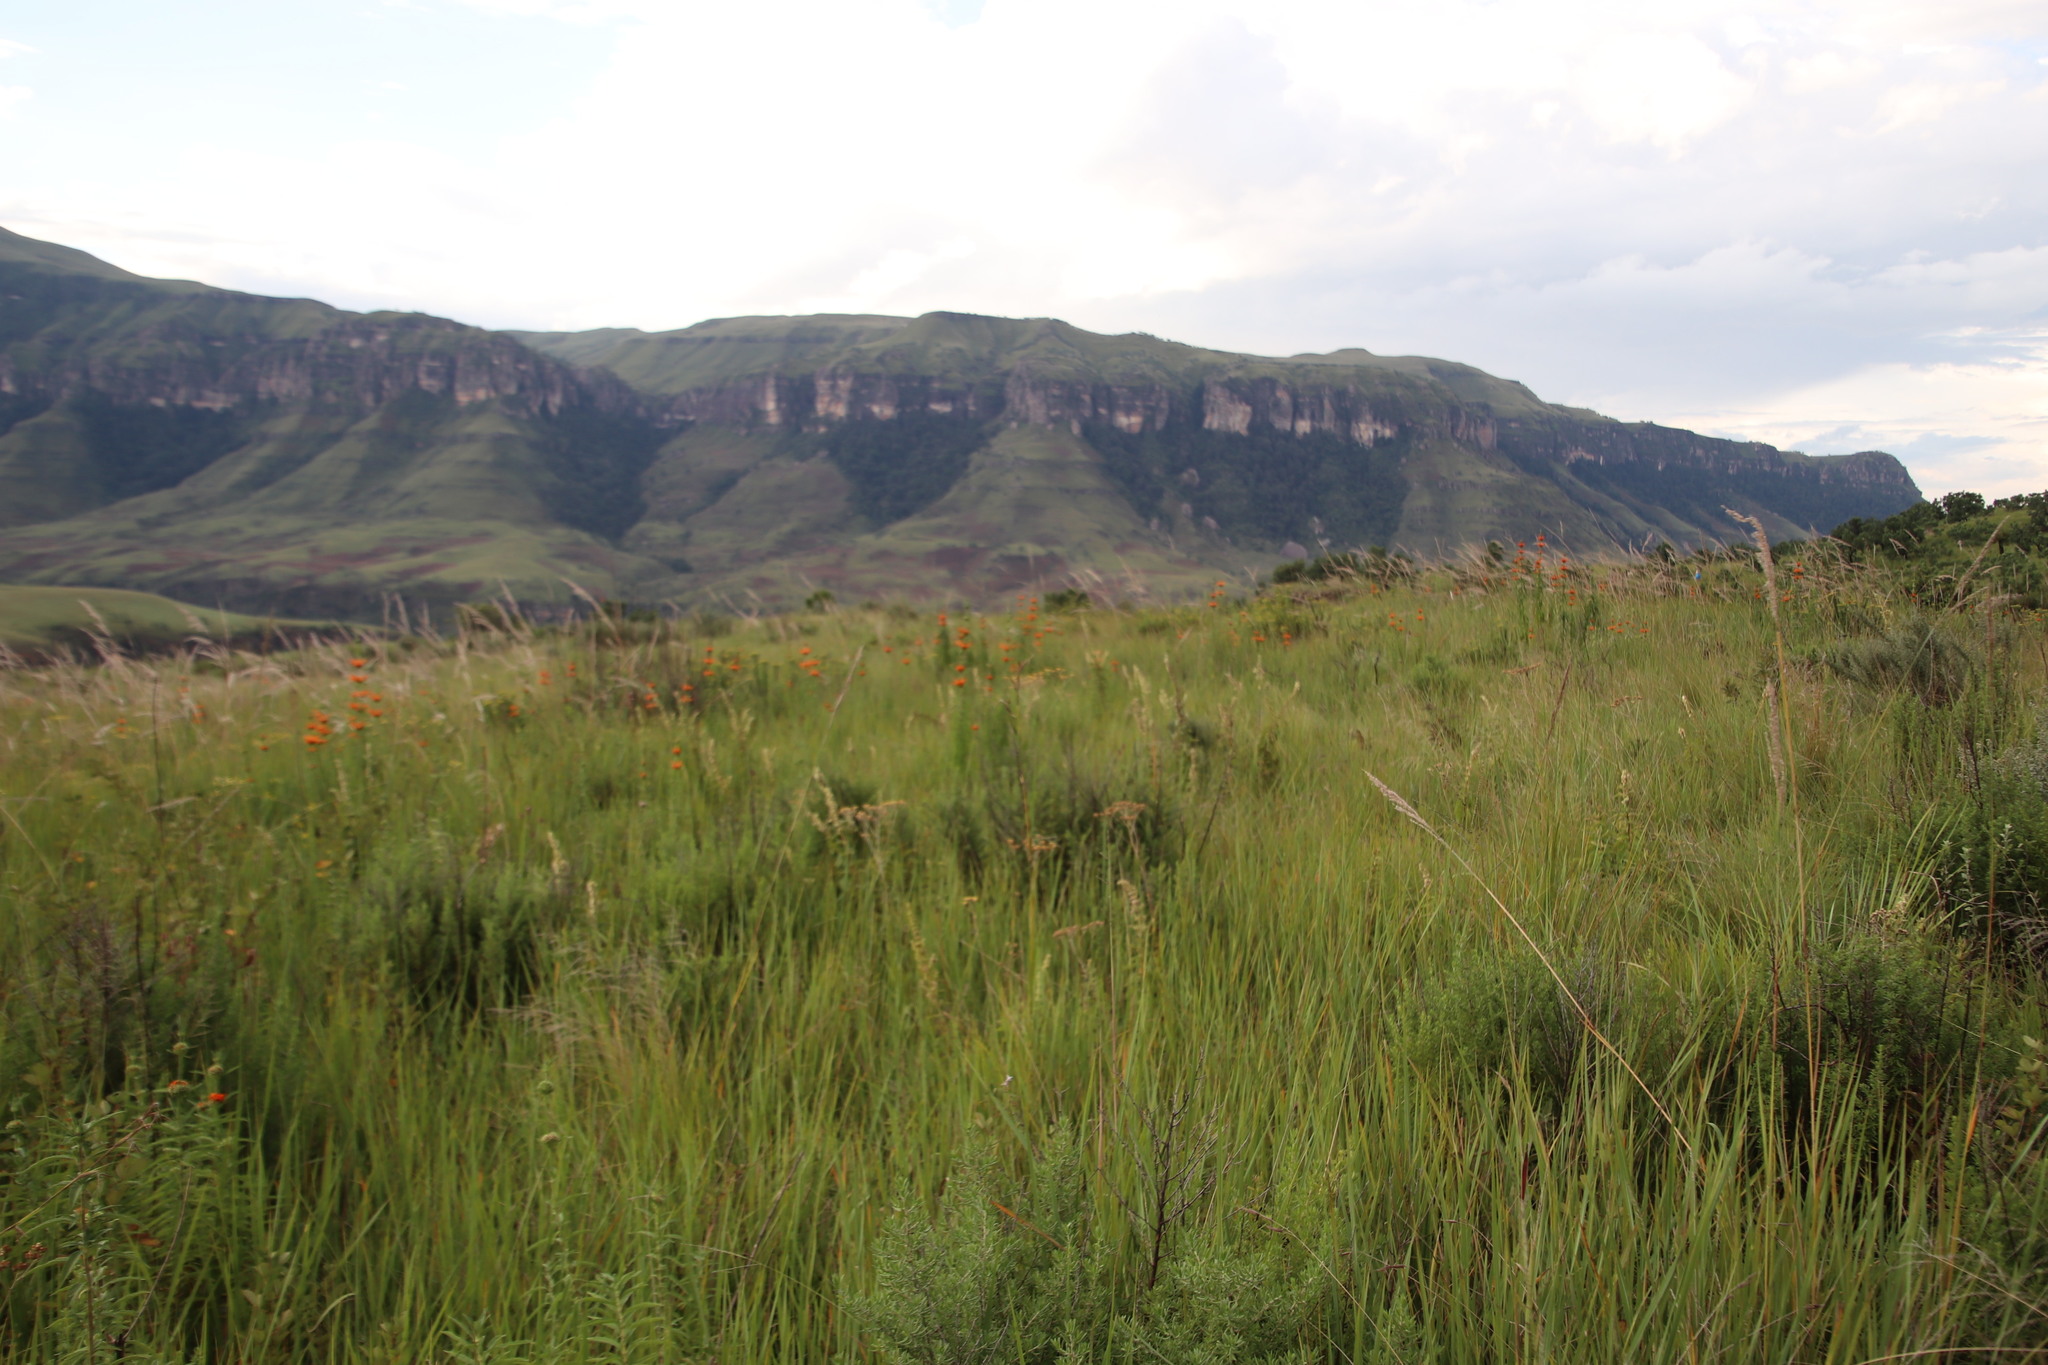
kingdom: Plantae
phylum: Tracheophyta
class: Magnoliopsida
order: Lamiales
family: Lamiaceae
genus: Leonotis
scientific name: Leonotis leonurus
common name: Lion's ear
